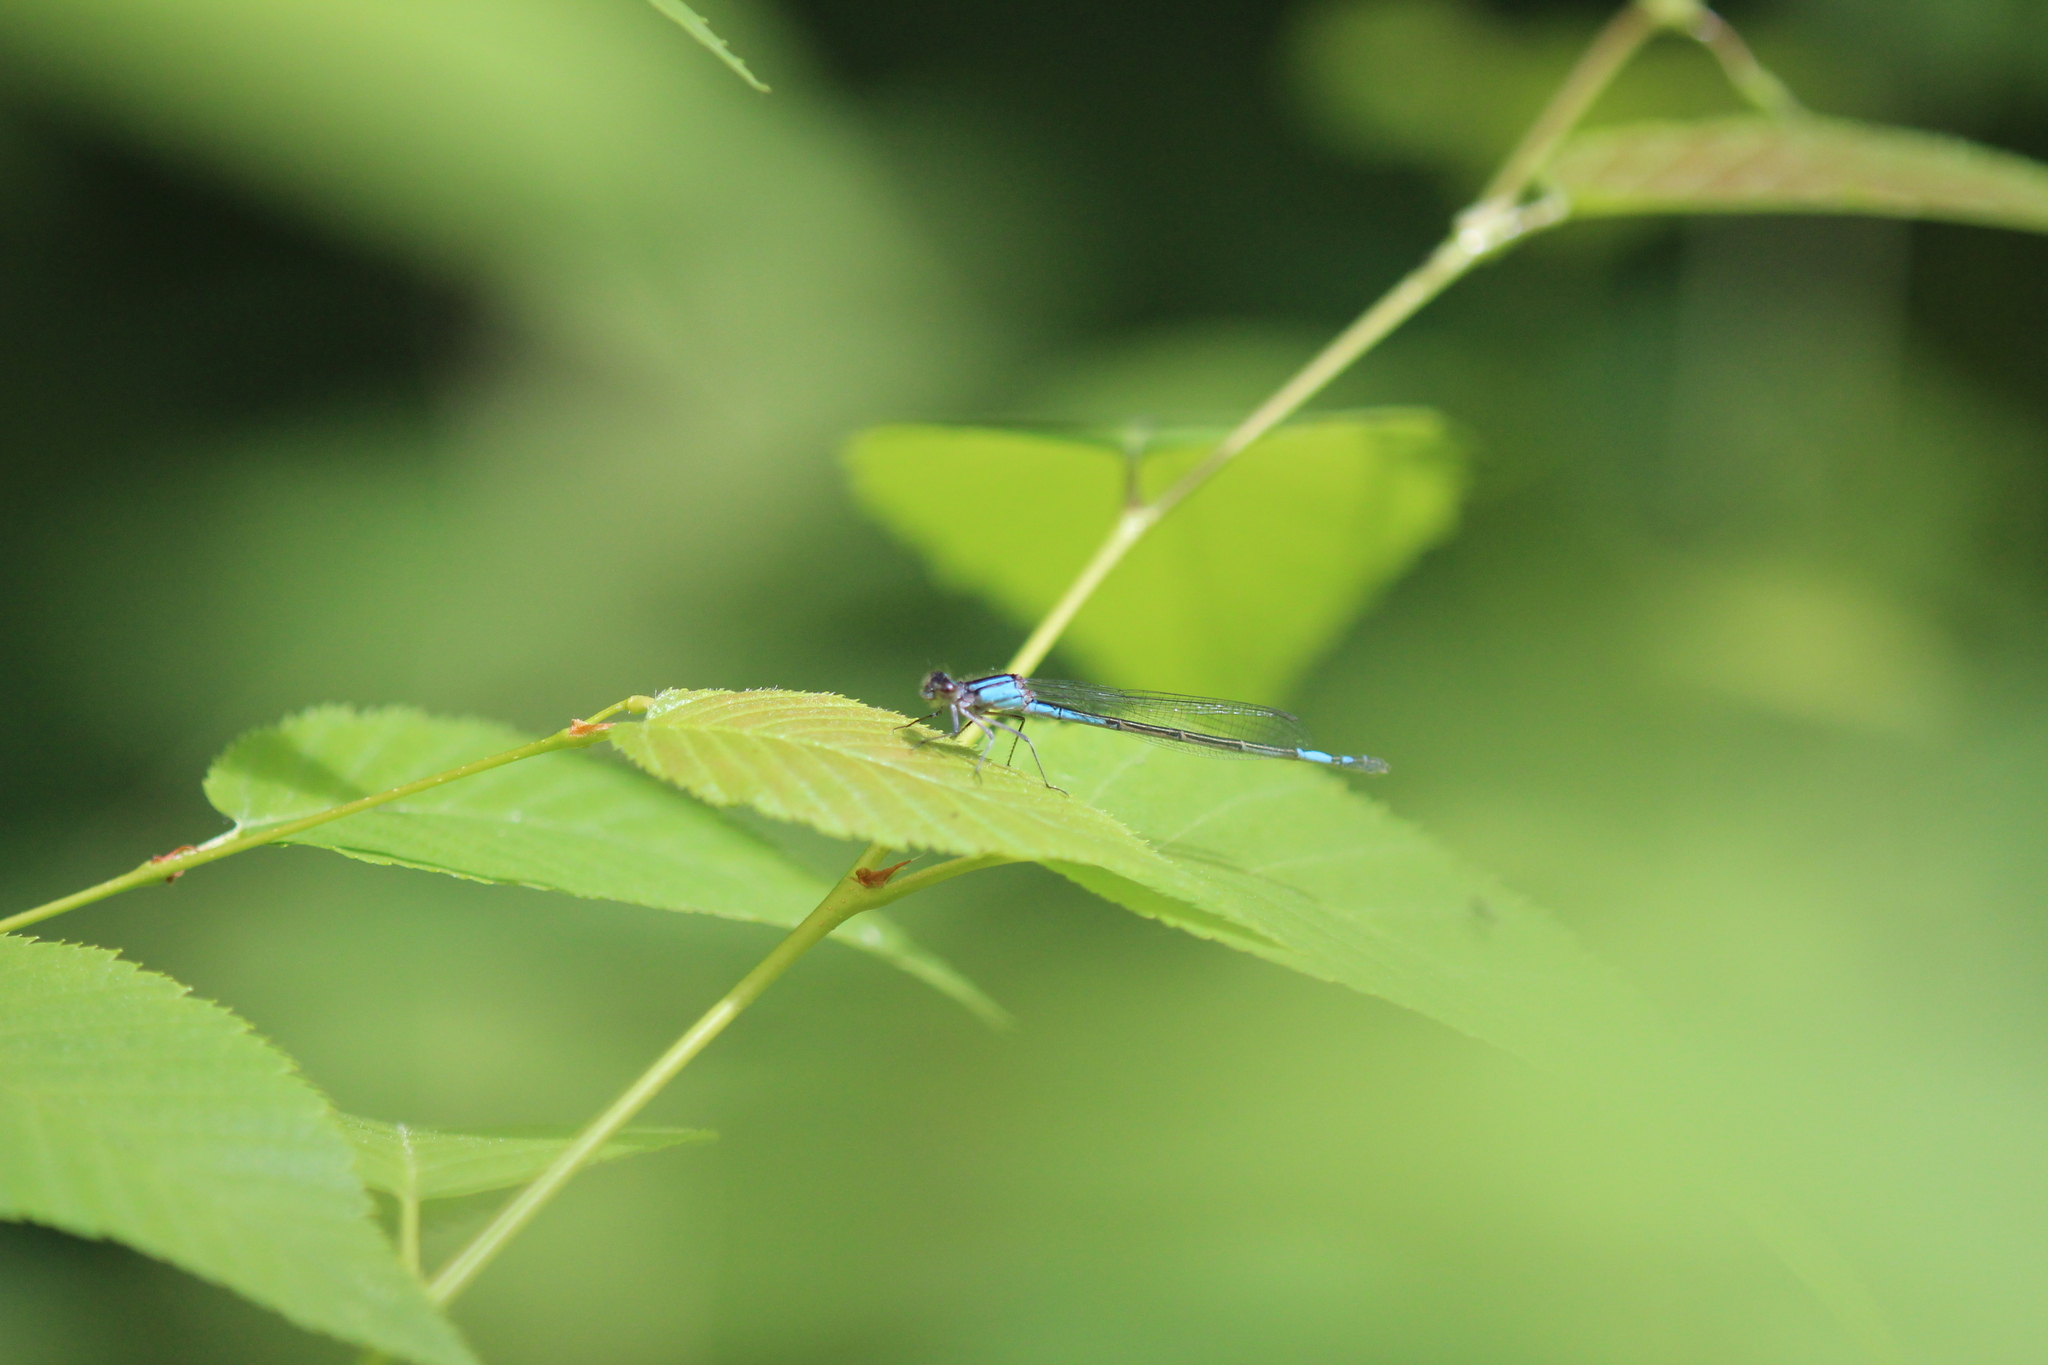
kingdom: Animalia
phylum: Arthropoda
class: Insecta
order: Odonata
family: Coenagrionidae
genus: Enallagma
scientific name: Enallagma aspersum
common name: Azure bluet
